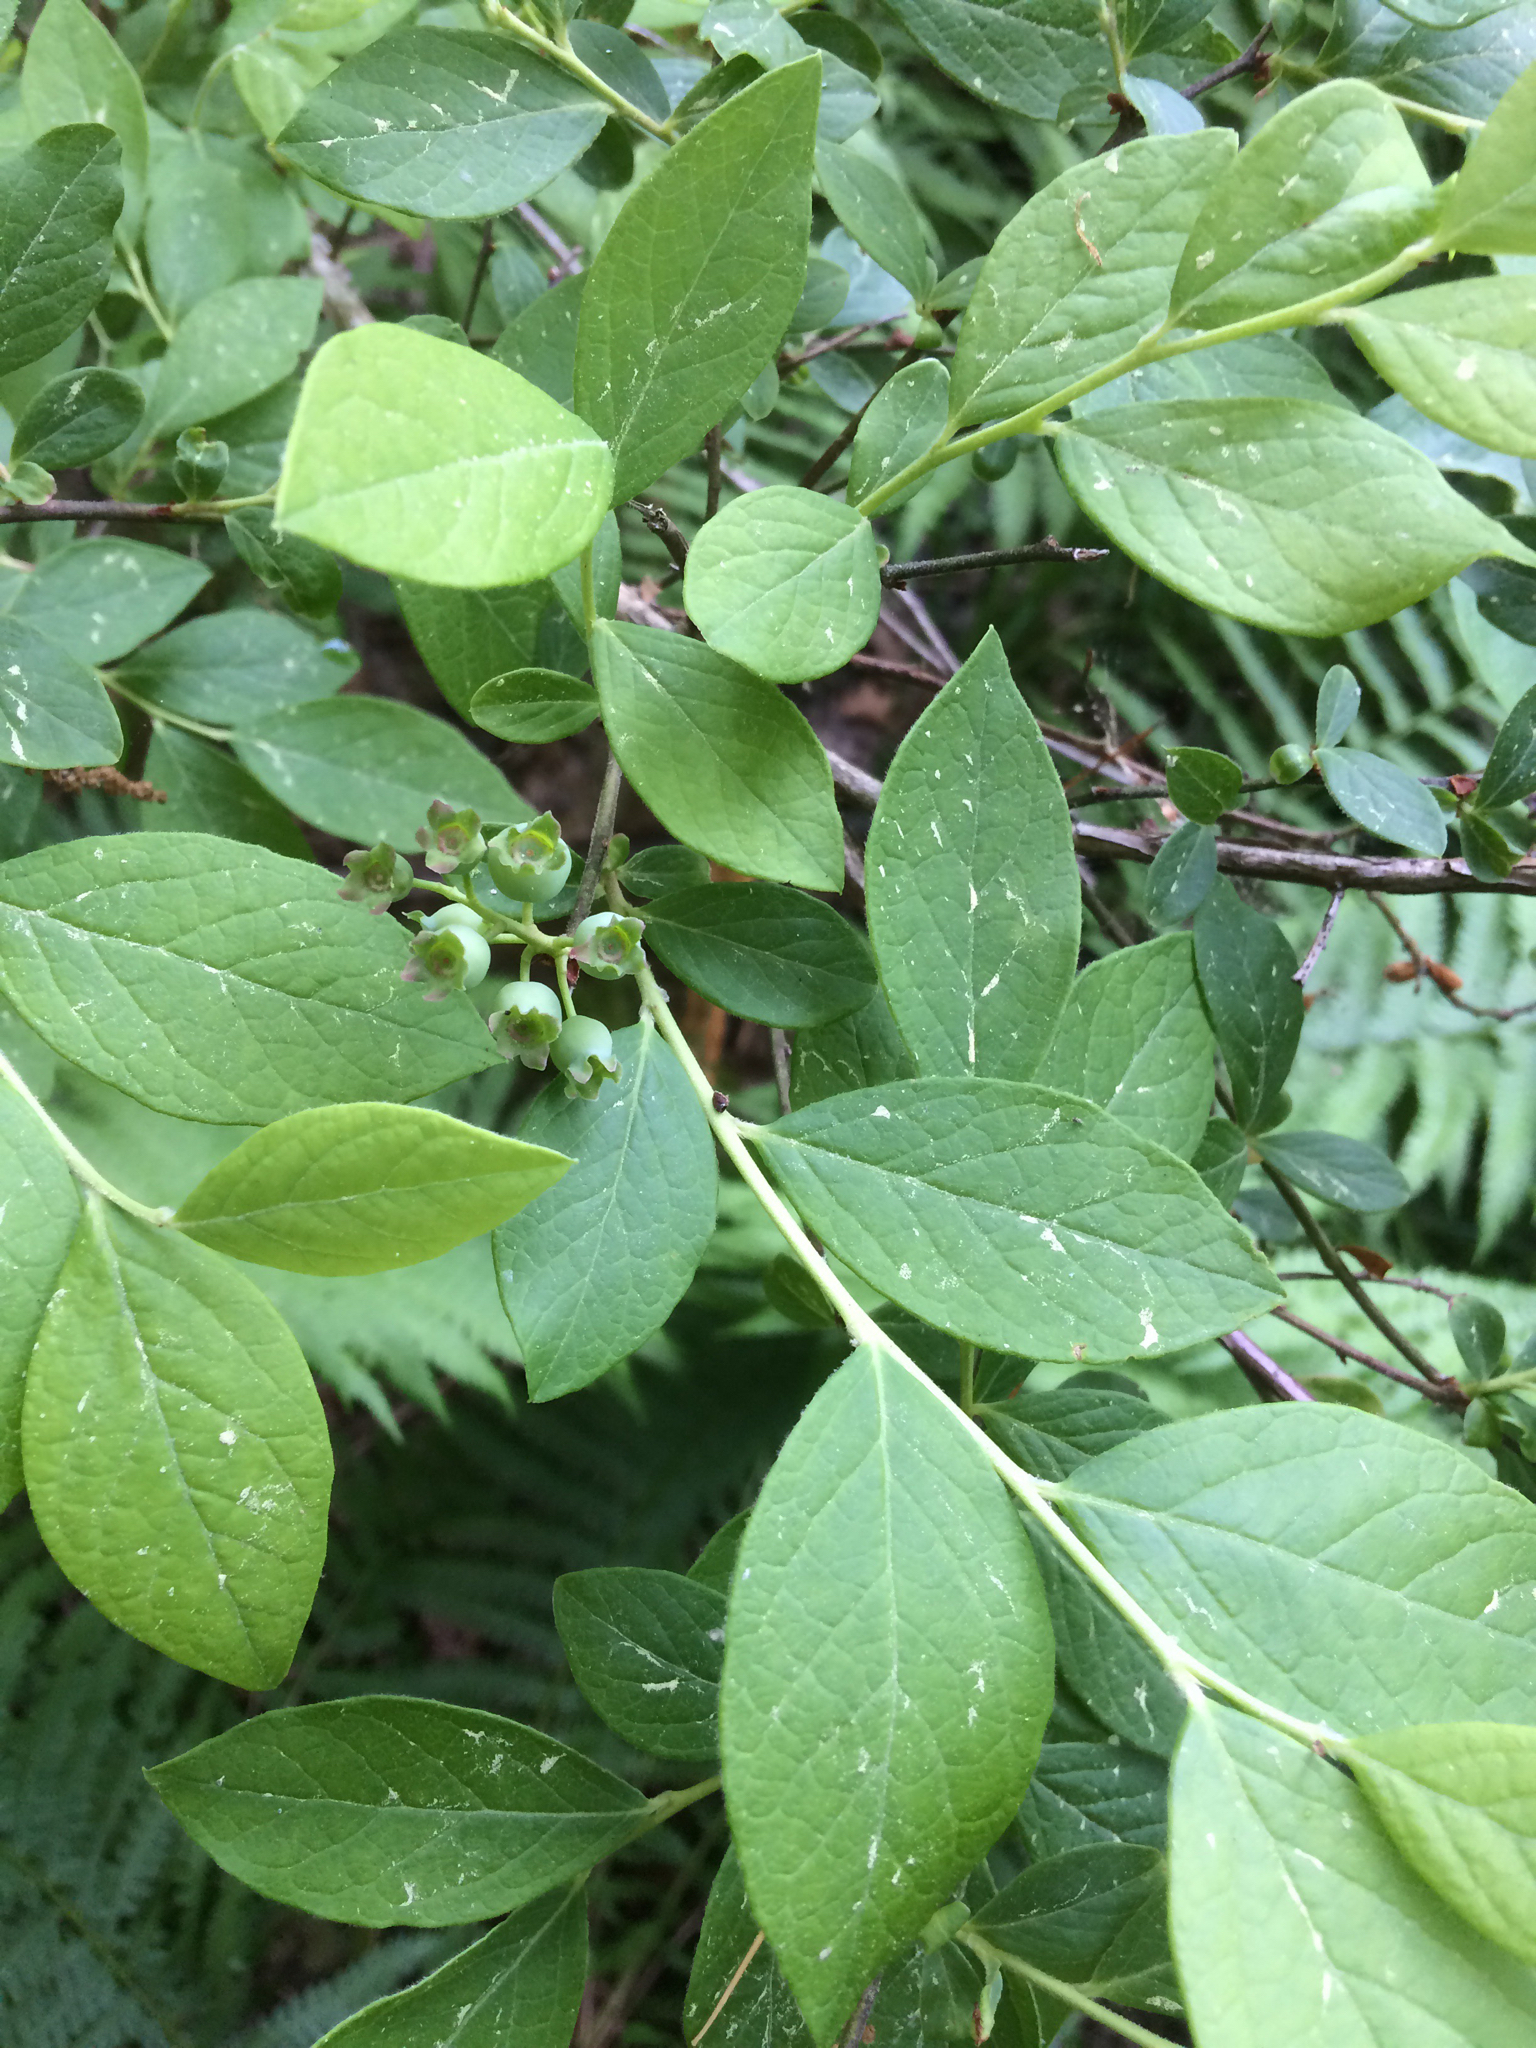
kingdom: Plantae
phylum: Tracheophyta
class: Magnoliopsida
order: Ericales
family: Ericaceae
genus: Vaccinium
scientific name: Vaccinium corymbosum
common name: Blueberry
